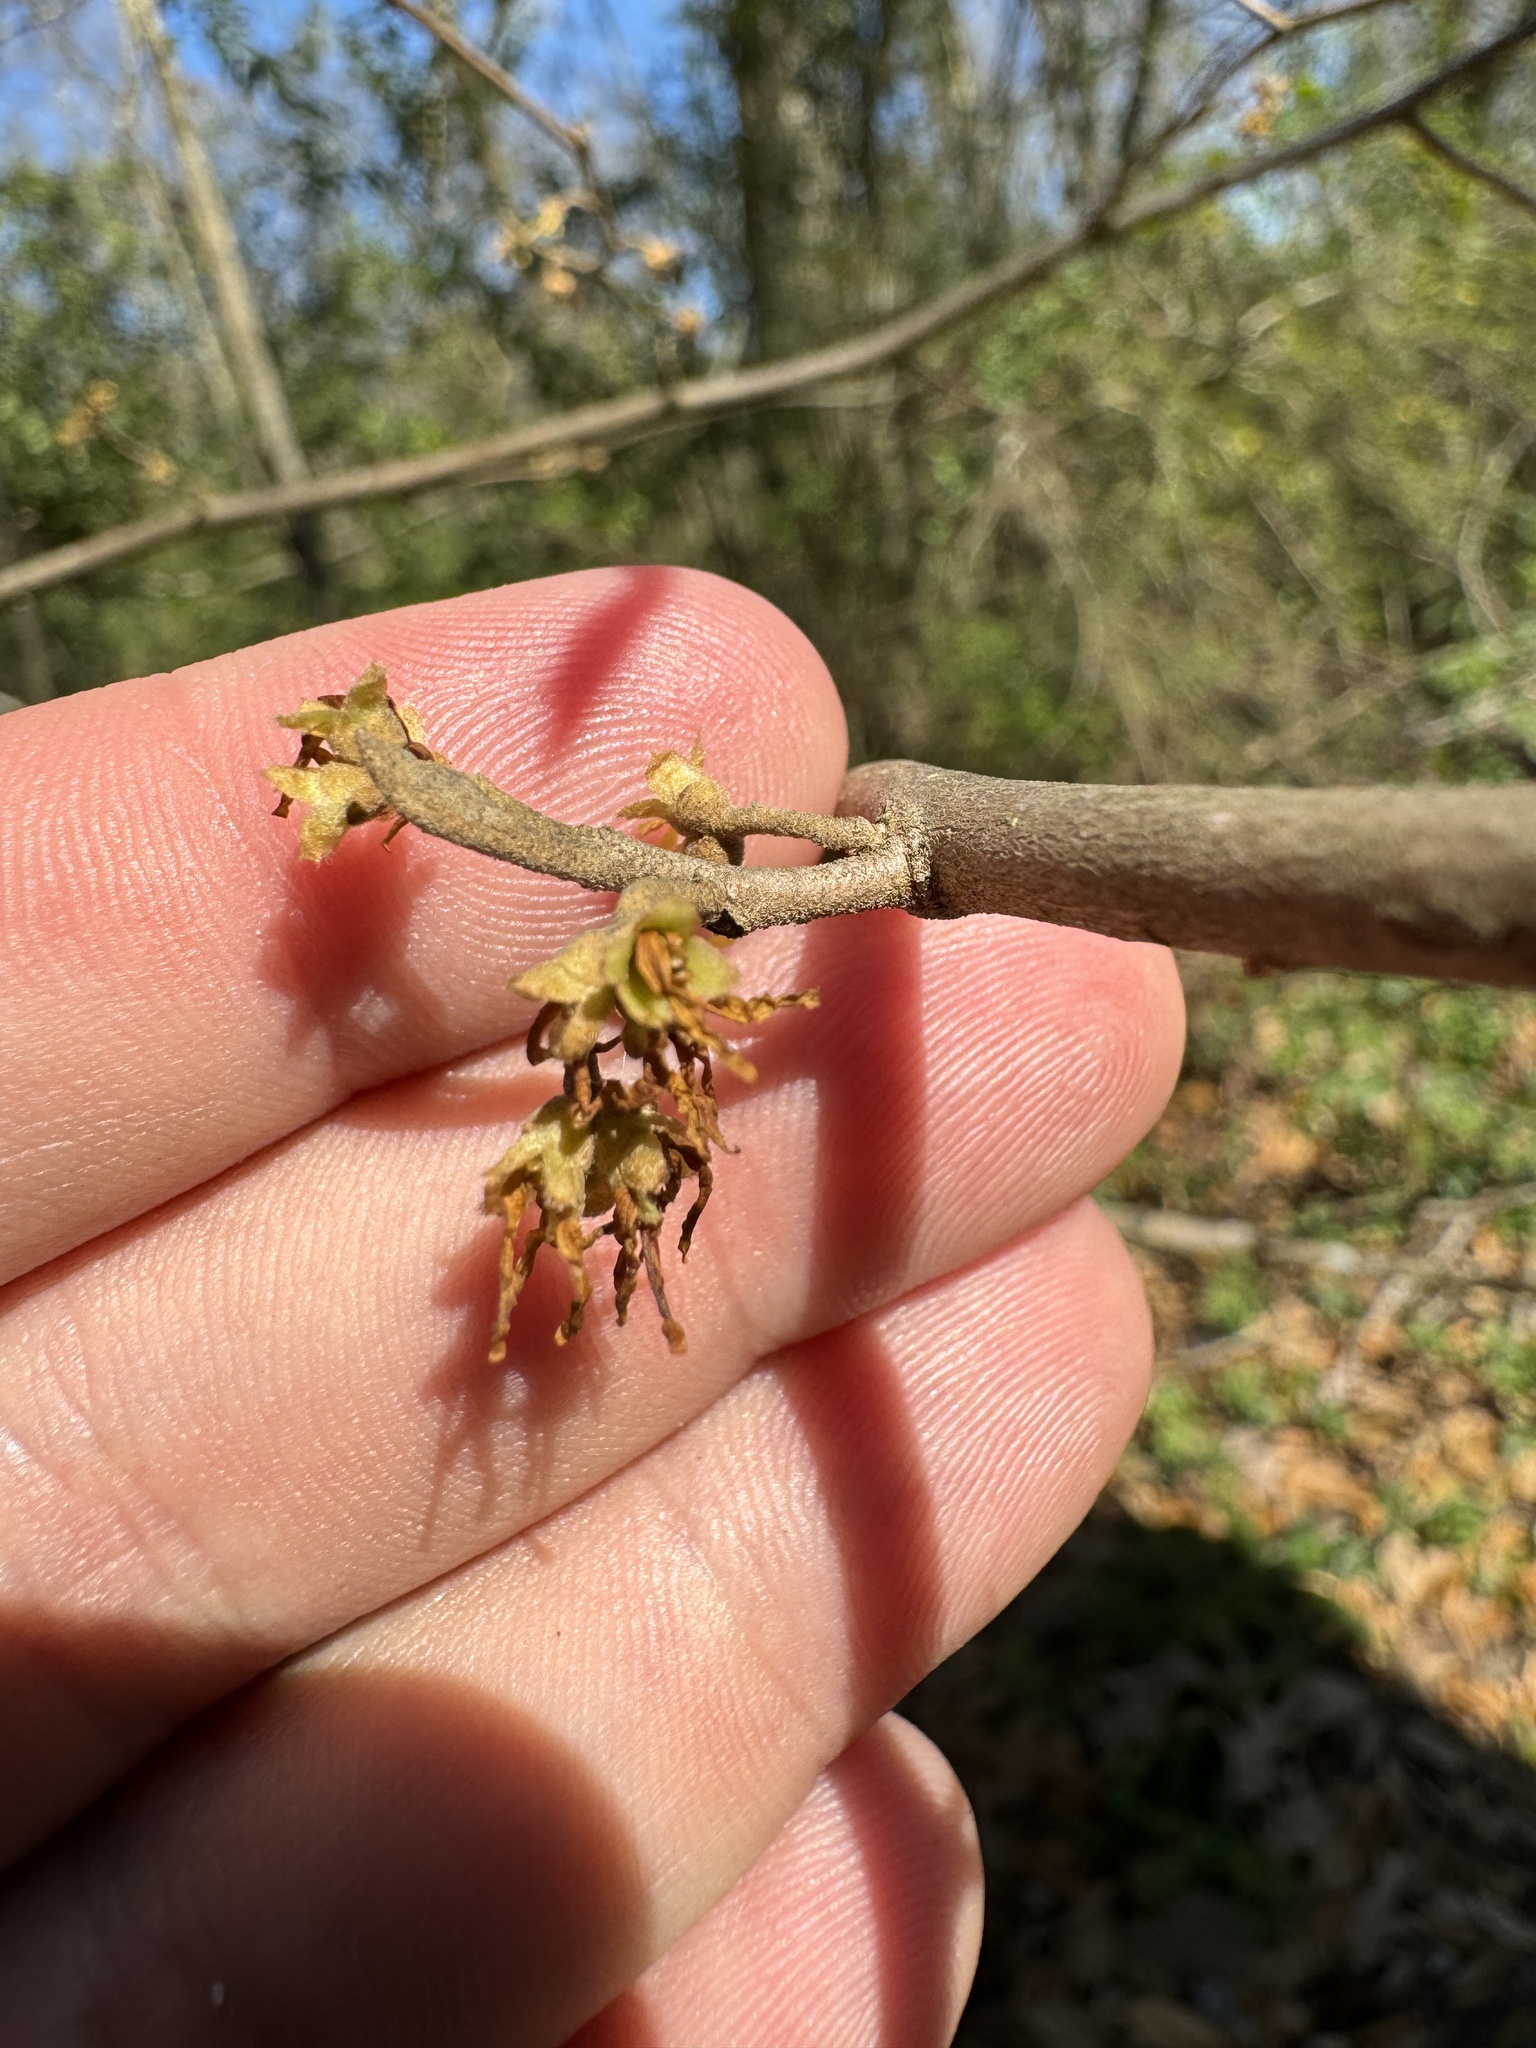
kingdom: Plantae
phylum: Tracheophyta
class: Magnoliopsida
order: Saxifragales
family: Hamamelidaceae
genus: Hamamelis
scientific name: Hamamelis virginiana
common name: Witch-hazel
